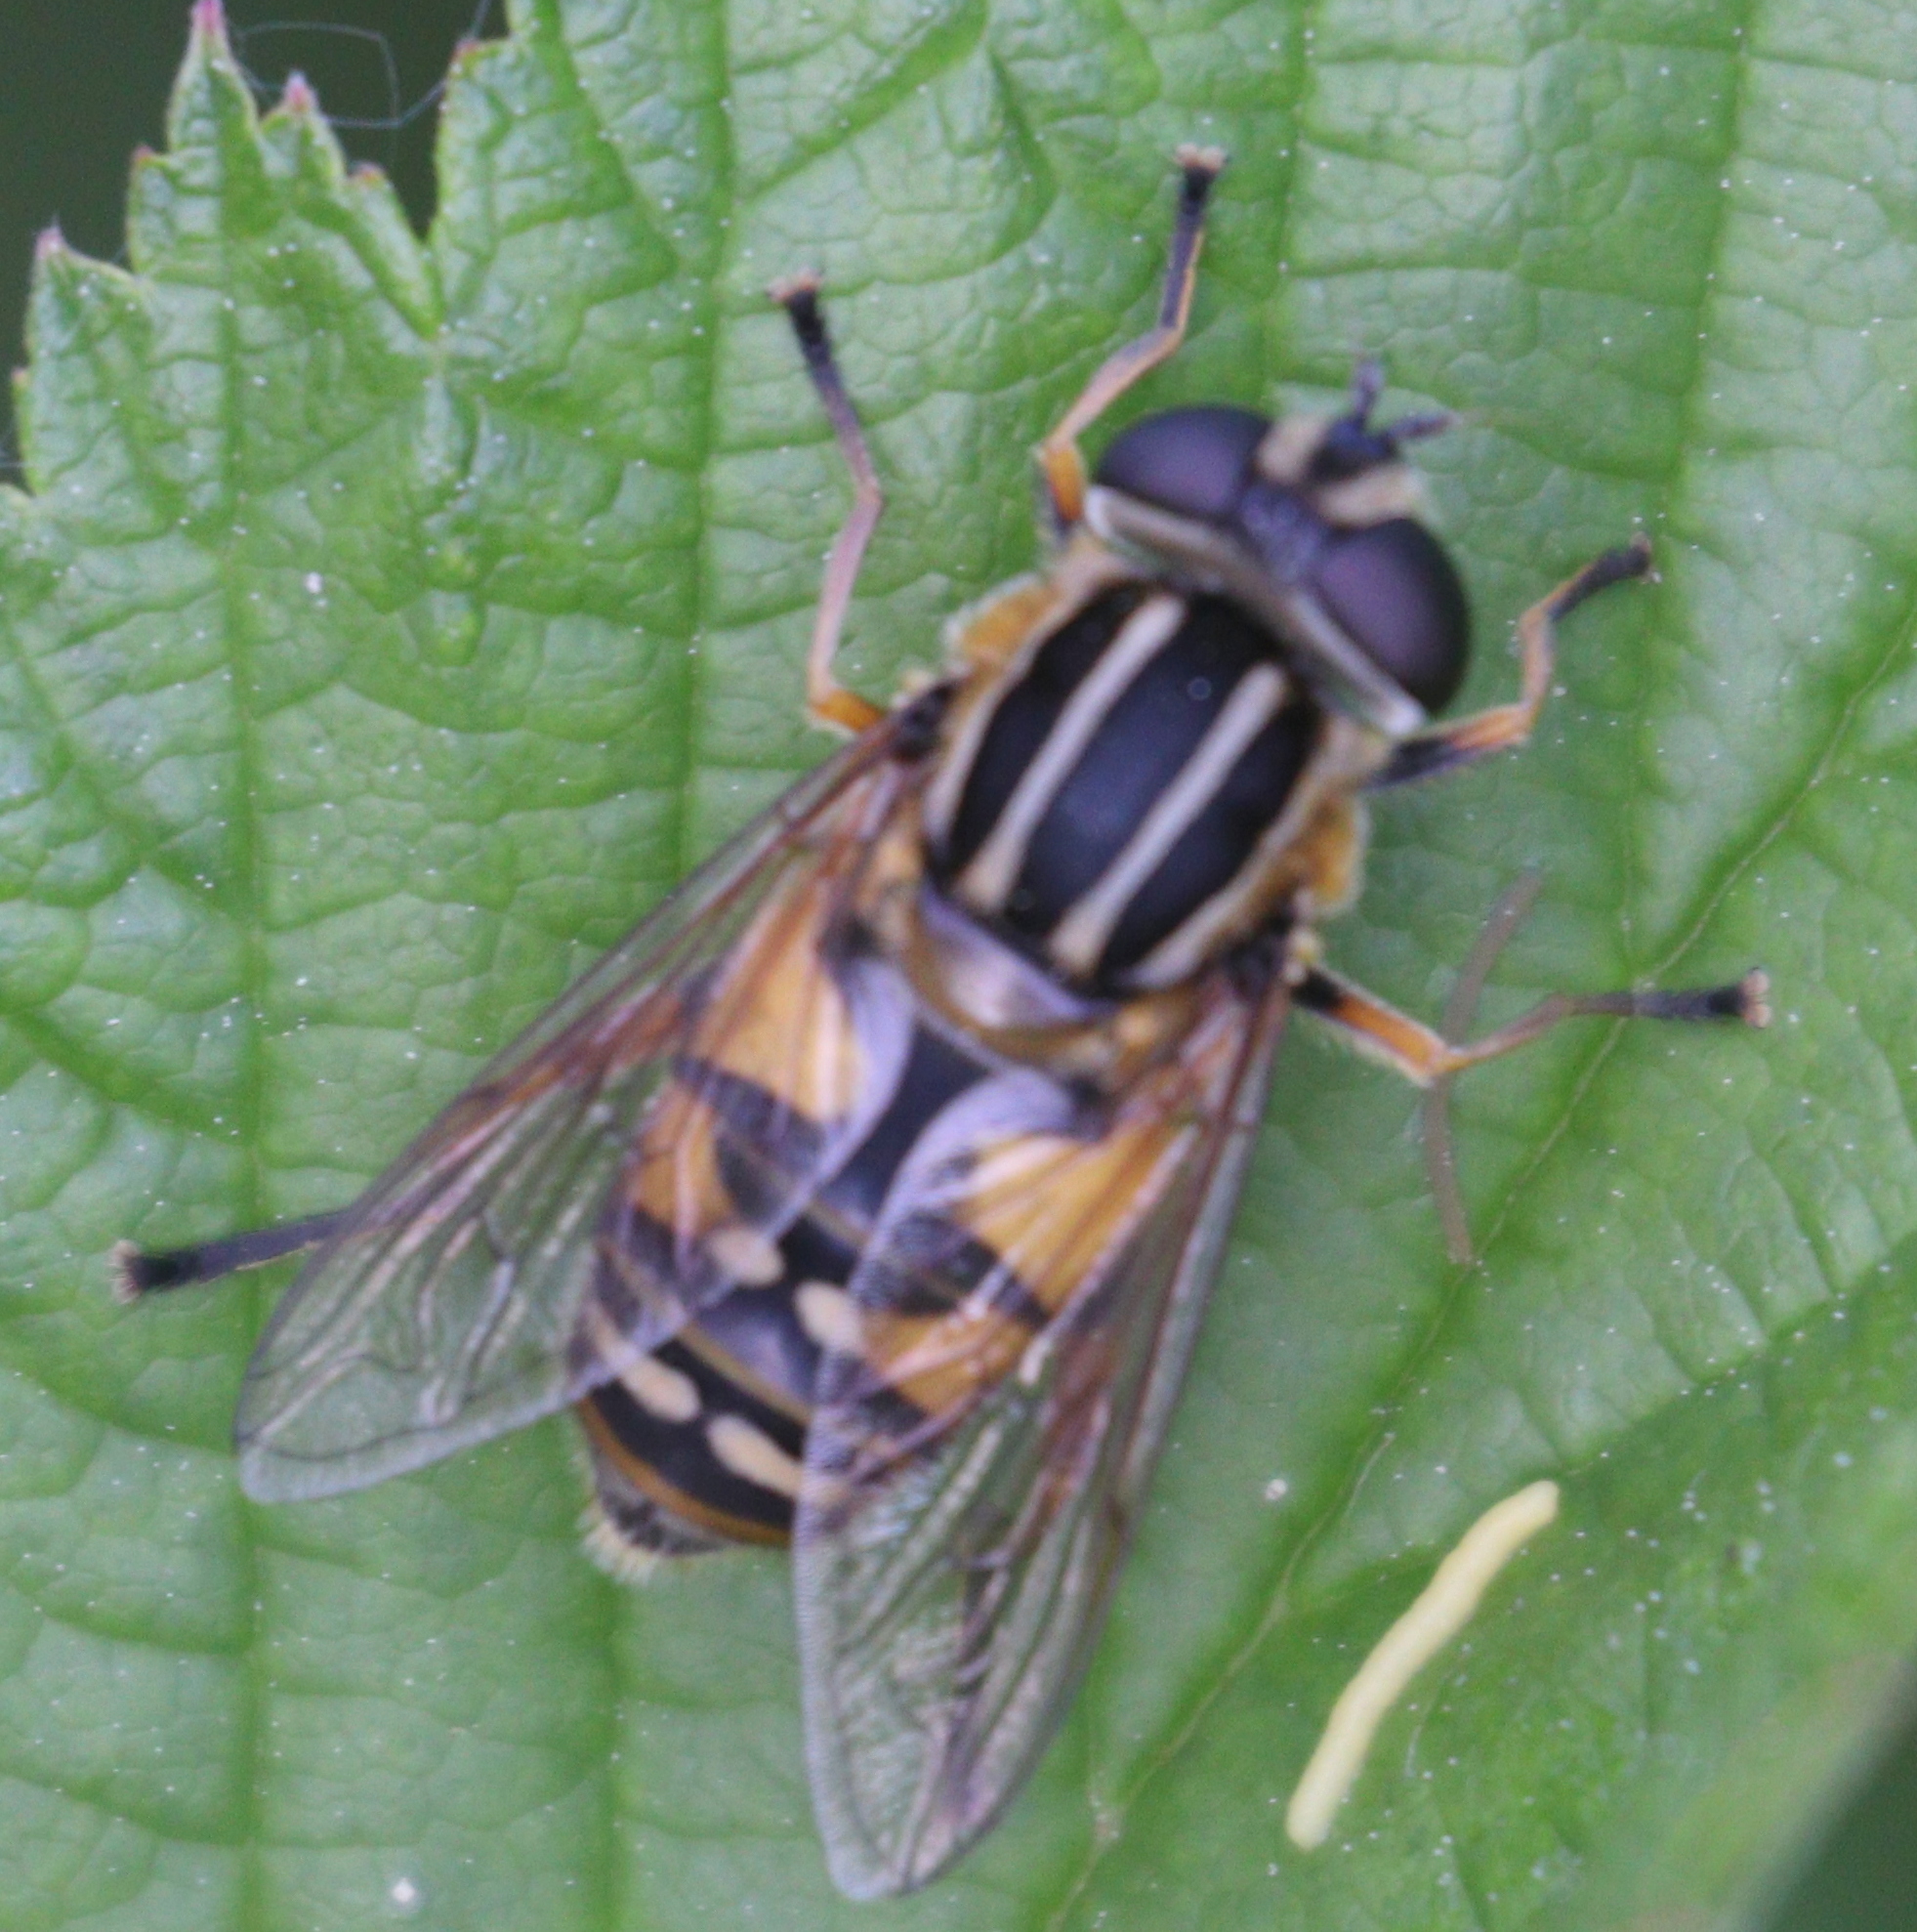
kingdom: Animalia
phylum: Arthropoda
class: Insecta
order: Diptera
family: Syrphidae
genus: Helophilus
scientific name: Helophilus pendulus
